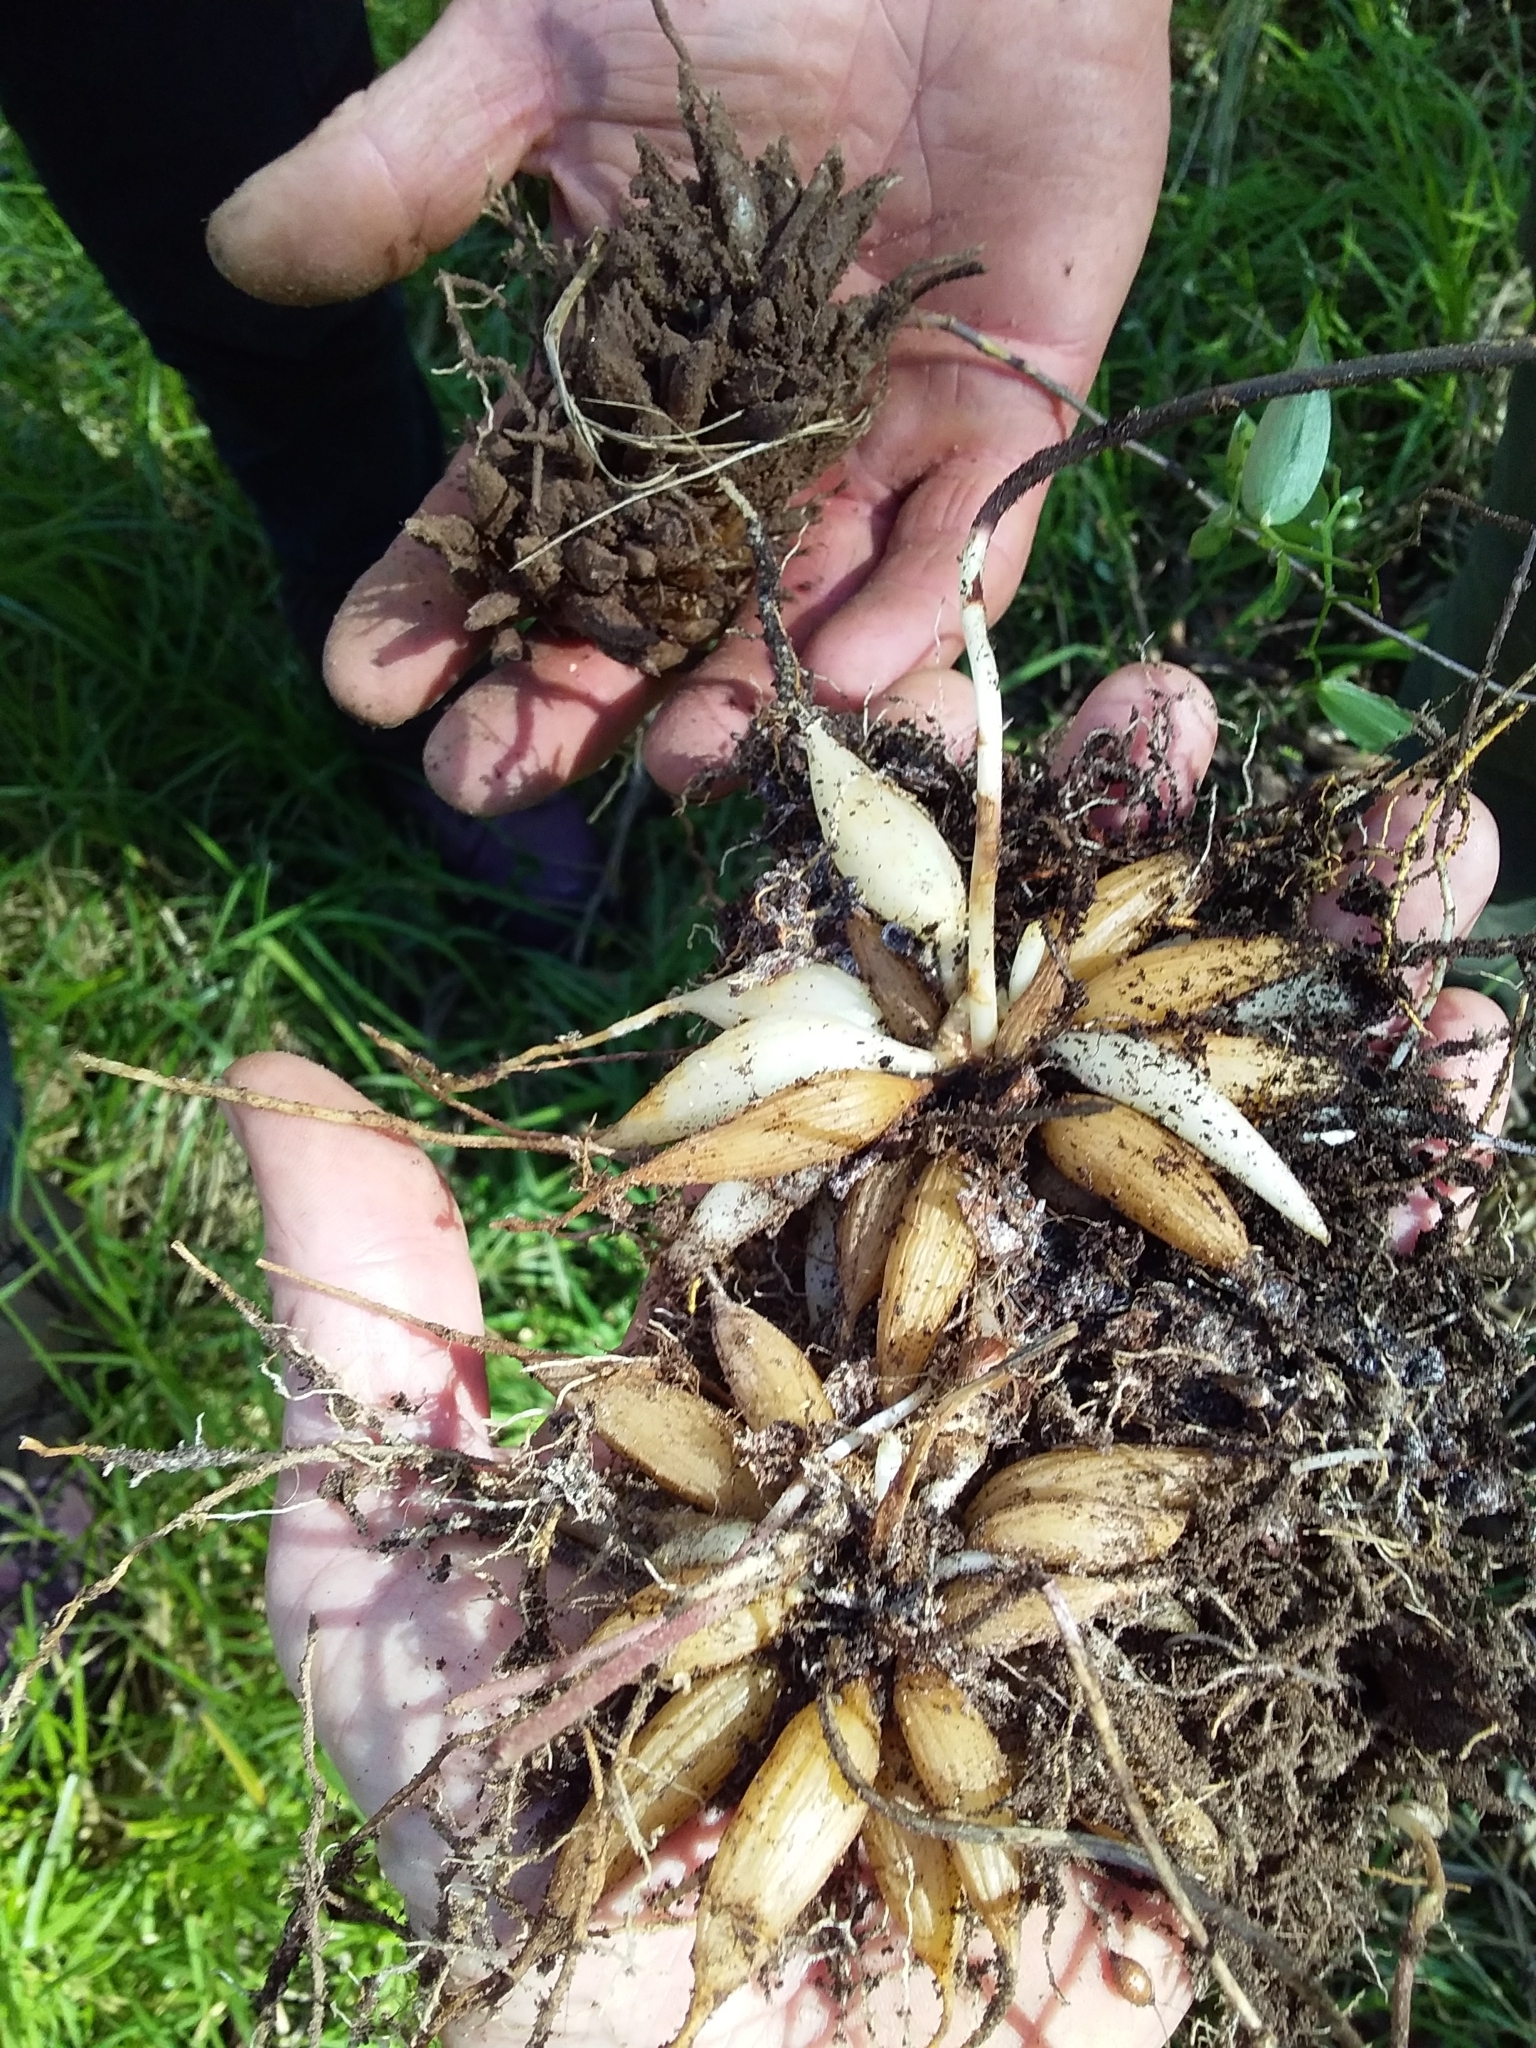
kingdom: Plantae
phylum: Tracheophyta
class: Liliopsida
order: Asparagales
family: Asparagaceae
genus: Asparagus
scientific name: Asparagus asparagoides
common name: African asparagus fern
